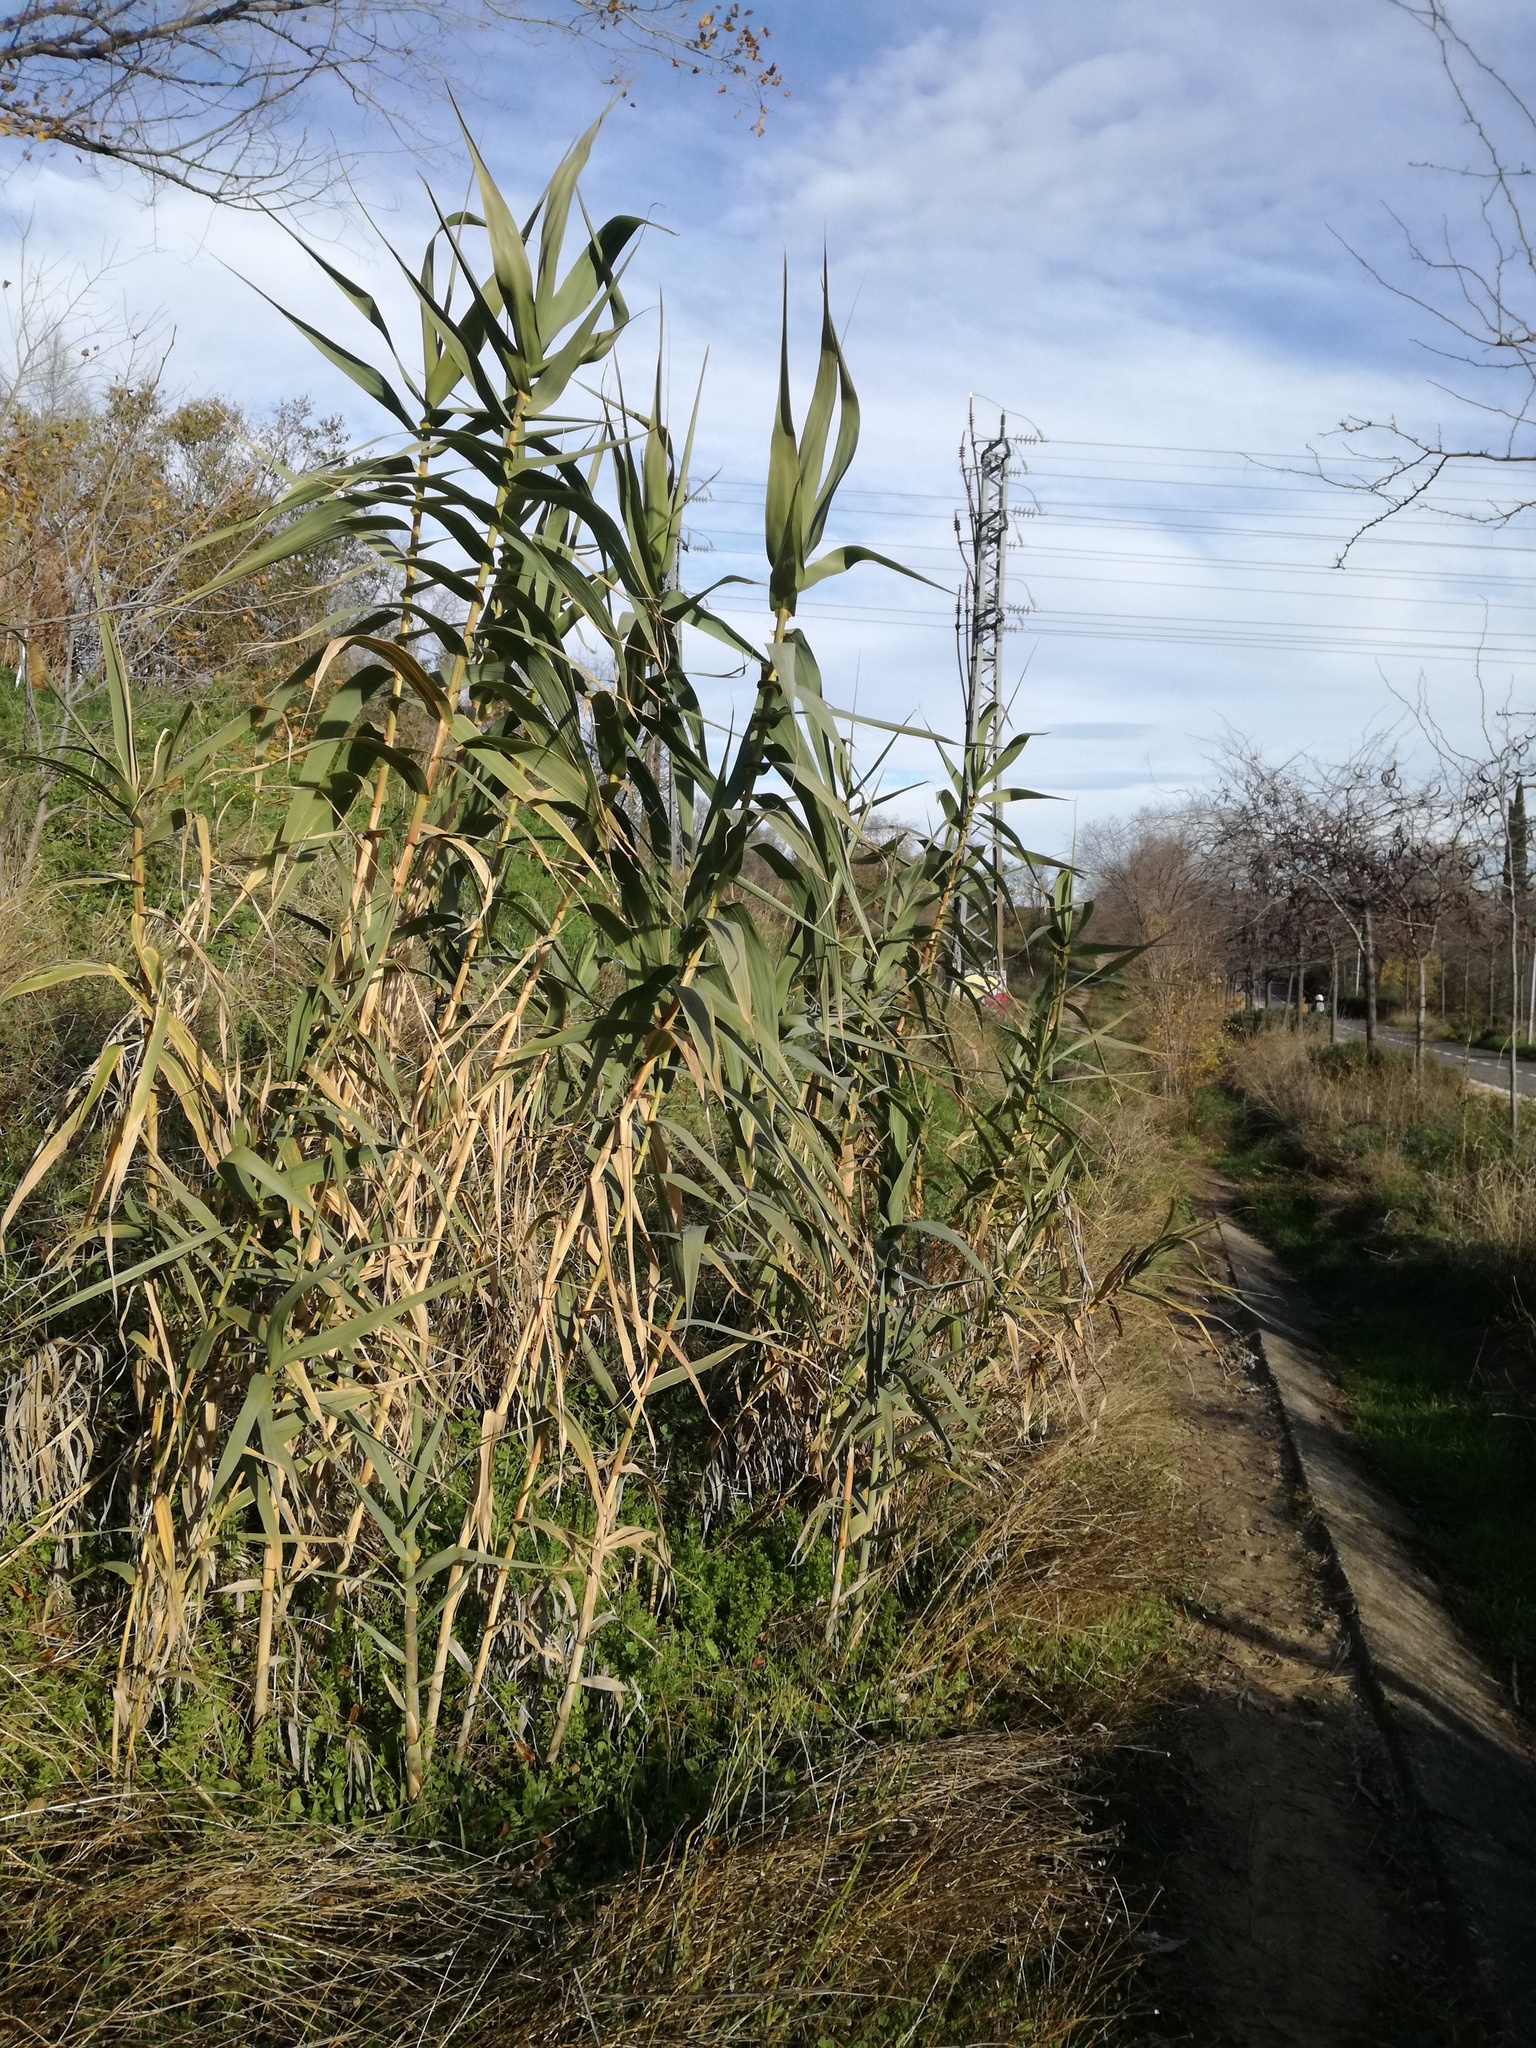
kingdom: Plantae
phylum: Tracheophyta
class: Liliopsida
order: Poales
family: Poaceae
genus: Arundo
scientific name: Arundo donax
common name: Giant reed
